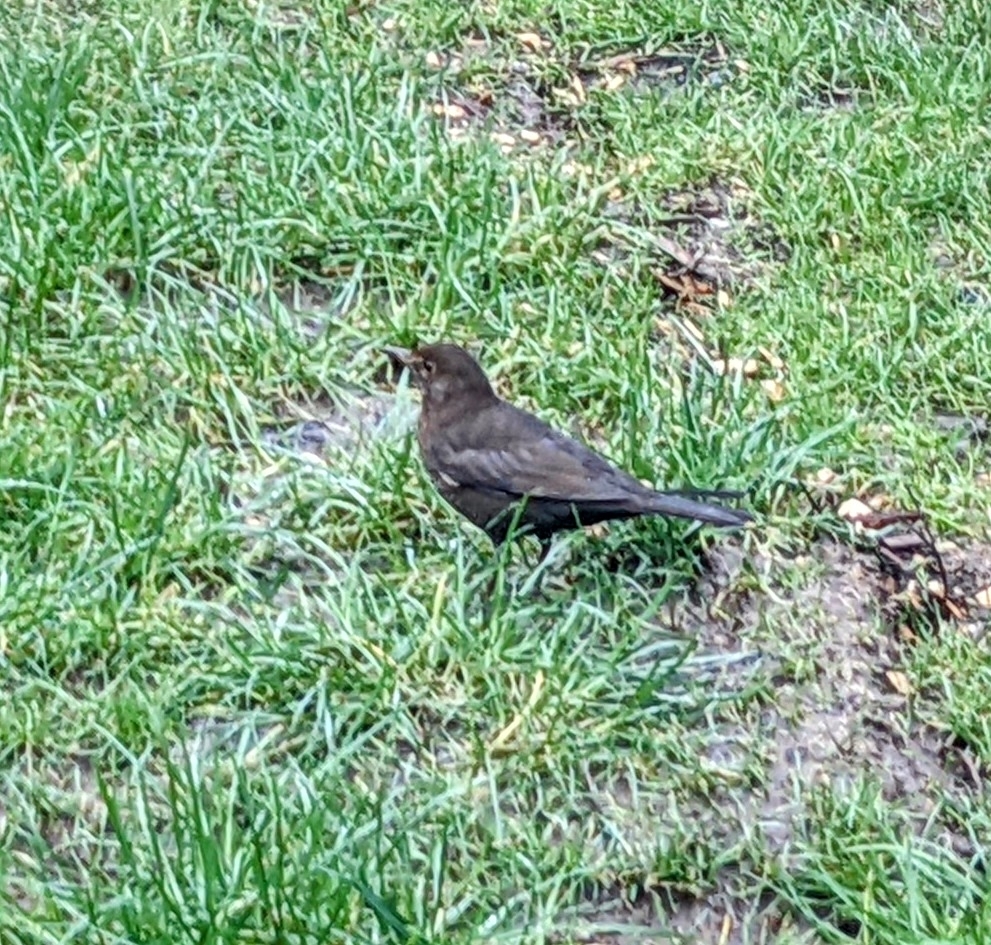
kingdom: Animalia
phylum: Chordata
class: Aves
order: Passeriformes
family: Turdidae
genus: Turdus
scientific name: Turdus merula
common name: Common blackbird
